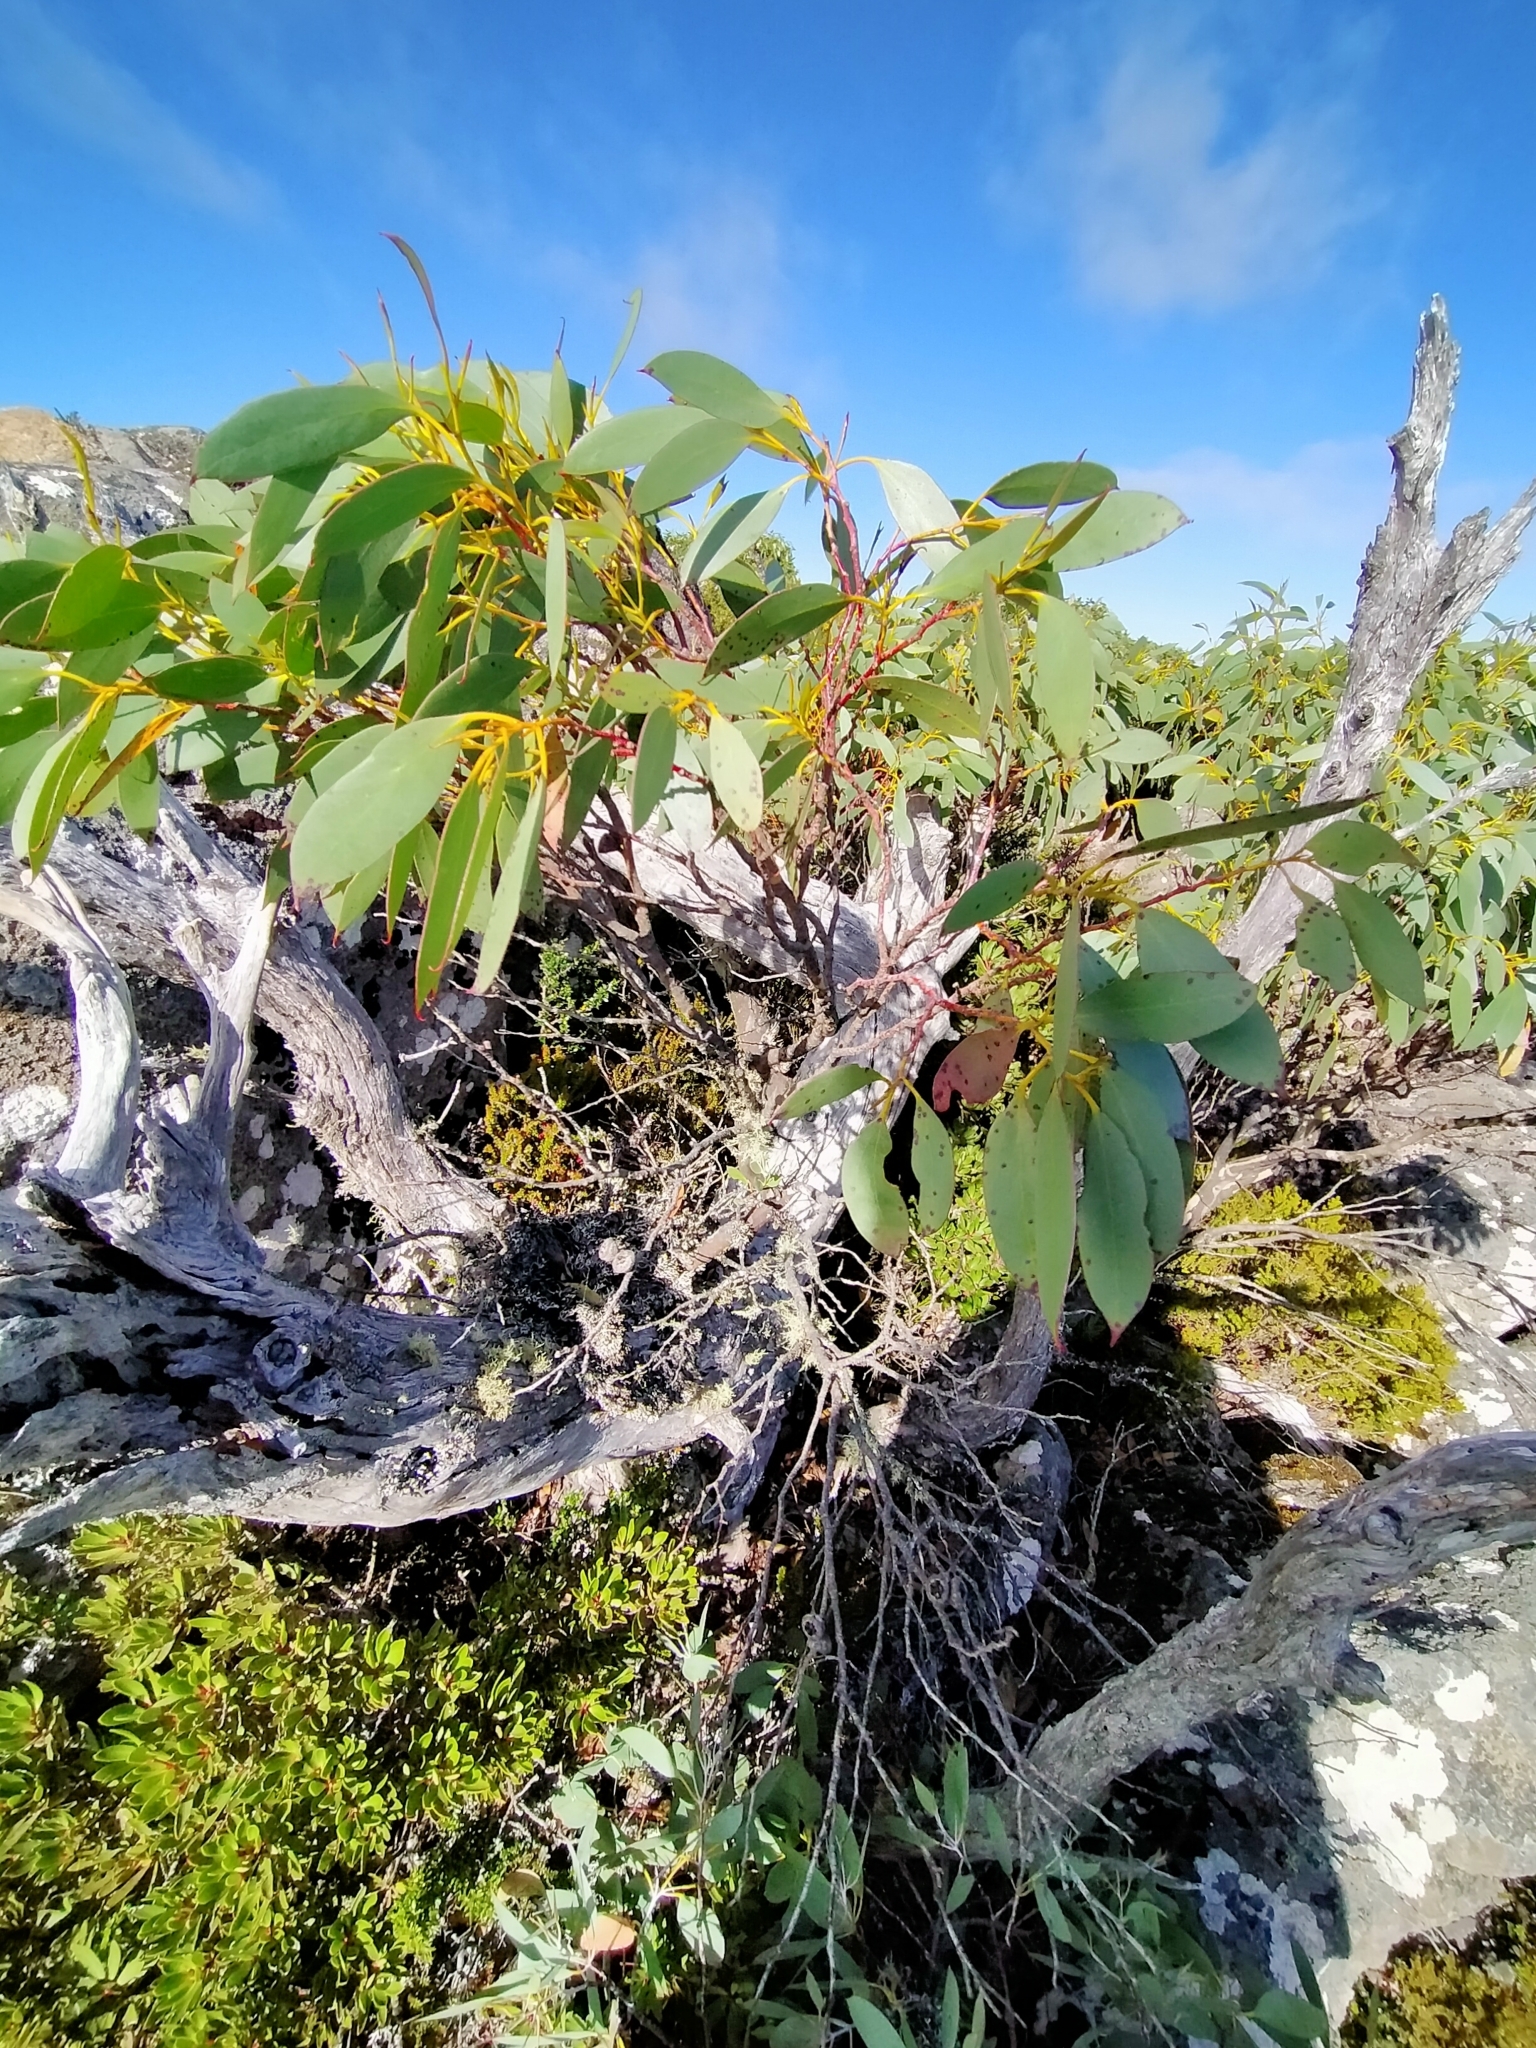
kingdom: Plantae
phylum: Tracheophyta
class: Magnoliopsida
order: Myrtales
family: Myrtaceae
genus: Eucalyptus
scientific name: Eucalyptus coccifera
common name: Tasmanian snow-gum
